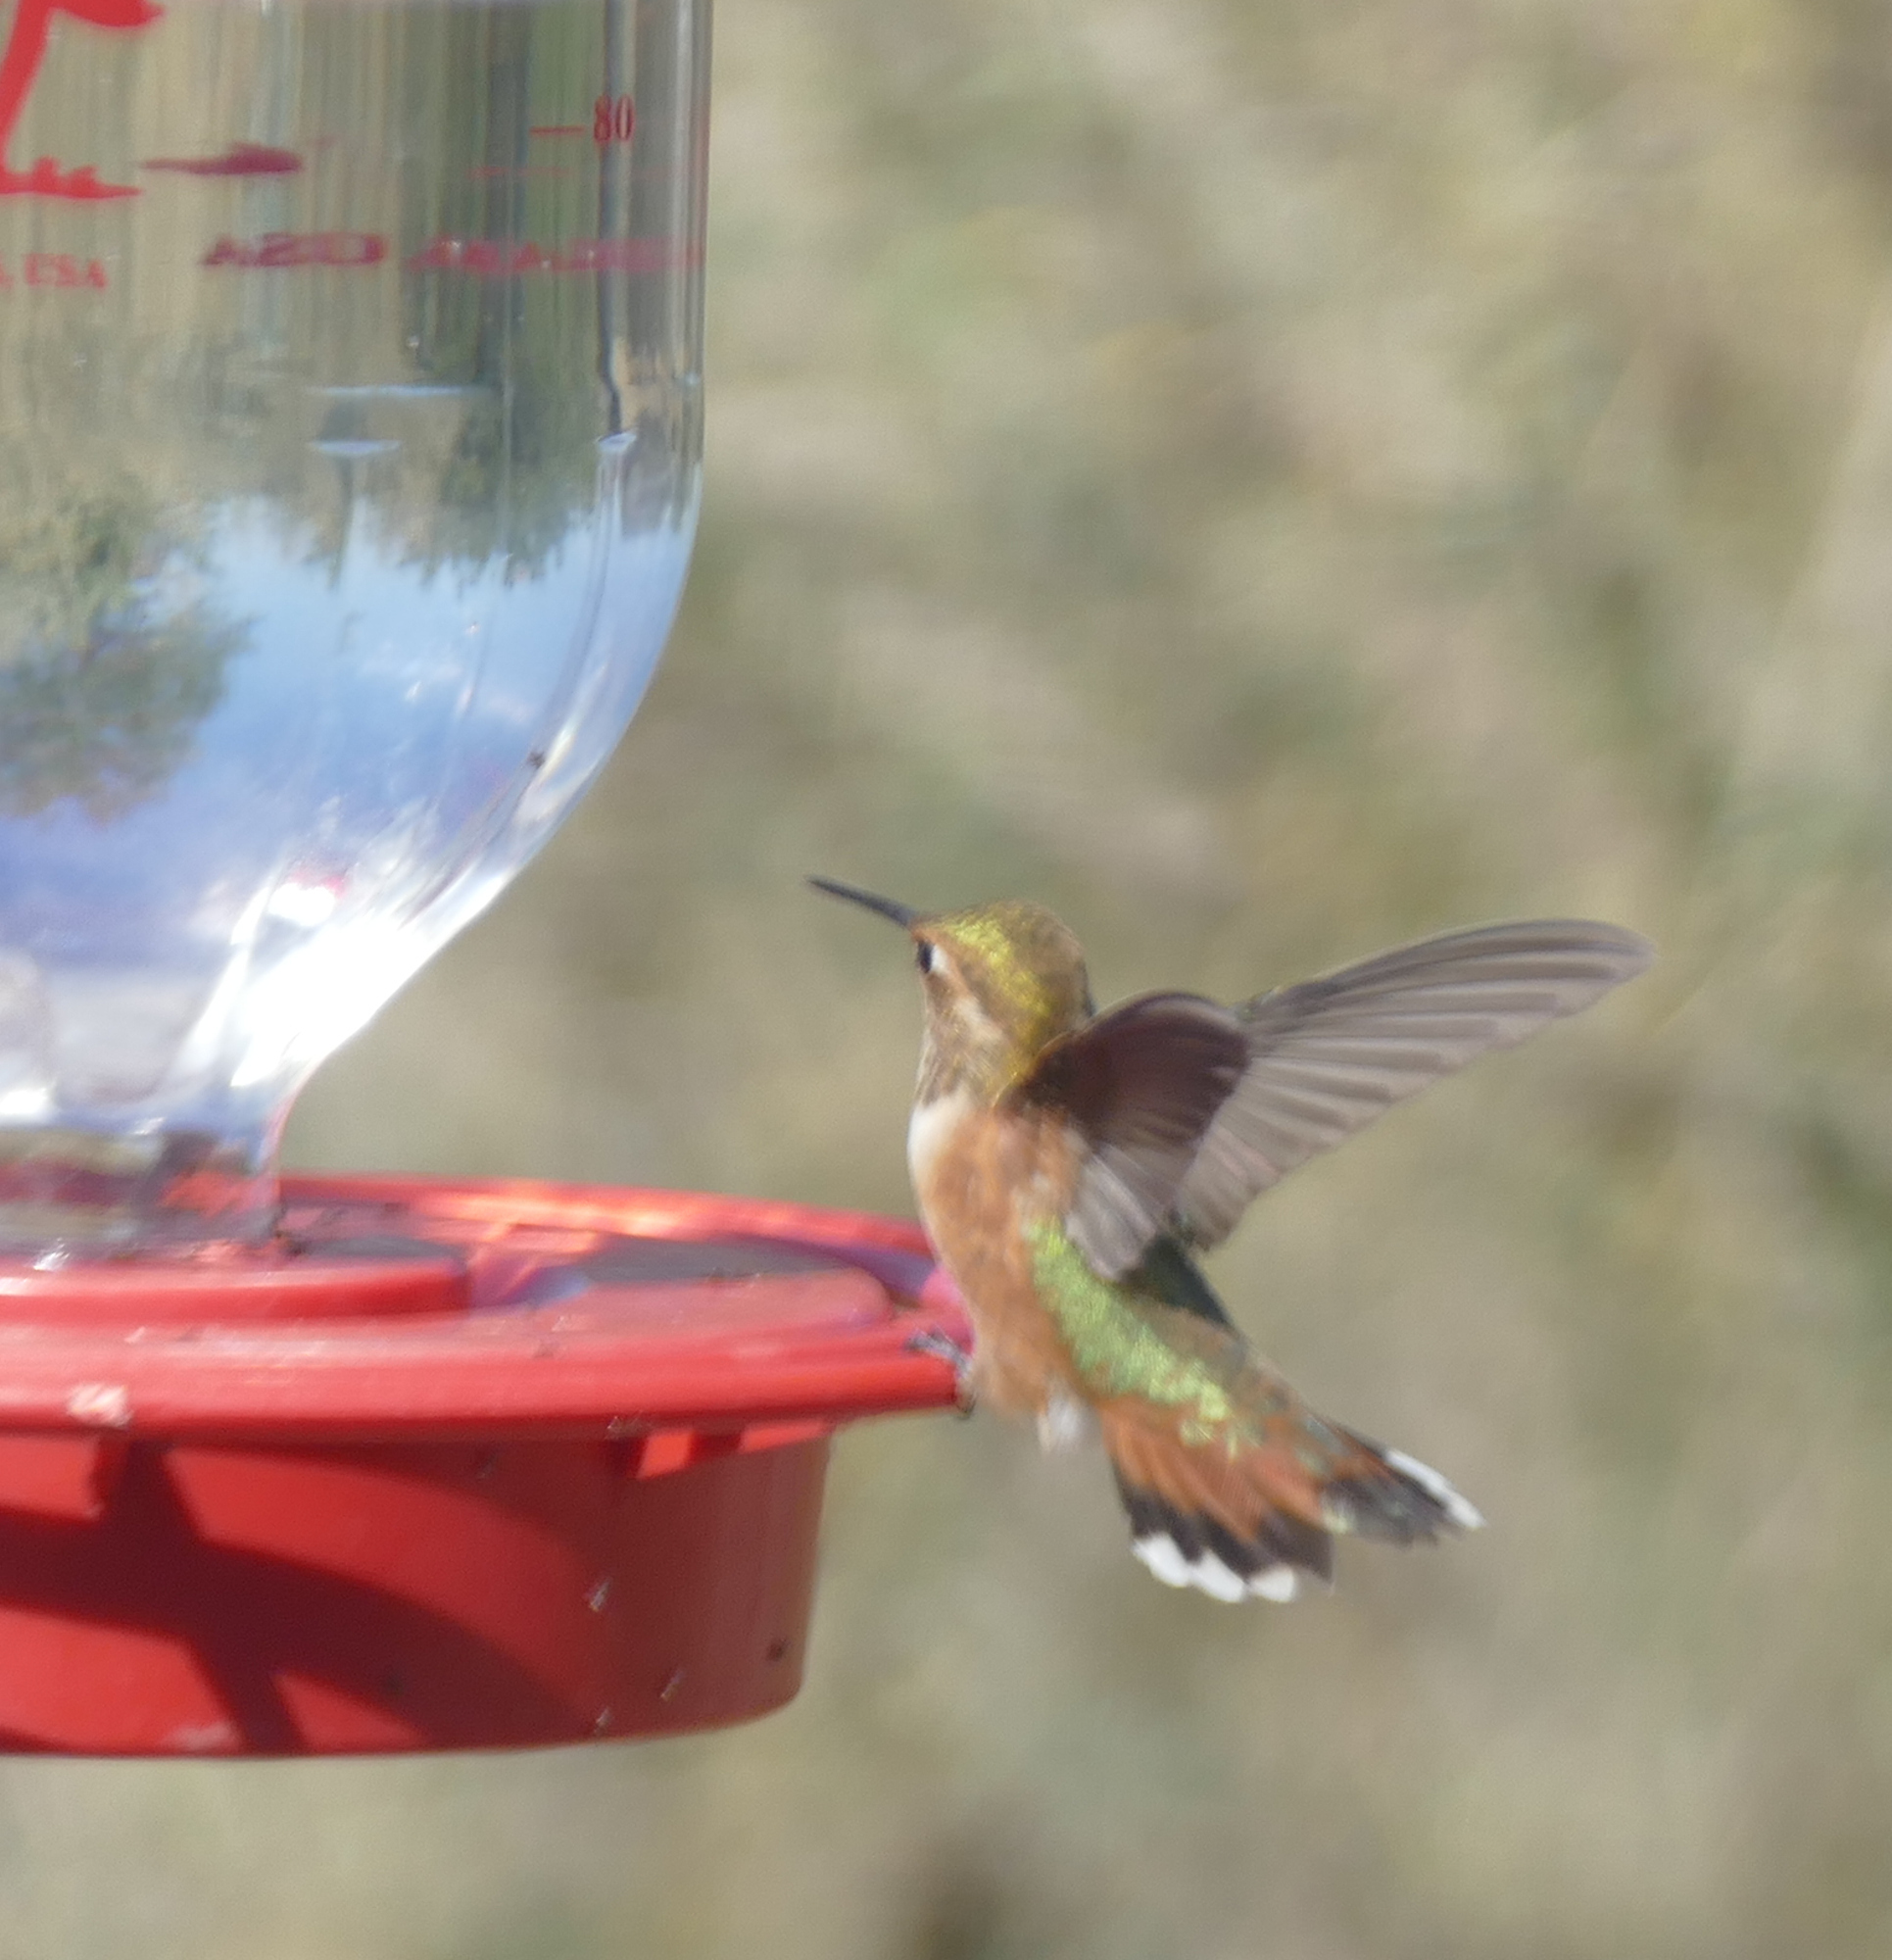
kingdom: Animalia
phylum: Chordata
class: Aves
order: Apodiformes
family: Trochilidae
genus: Selasphorus
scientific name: Selasphorus rufus
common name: Rufous hummingbird
